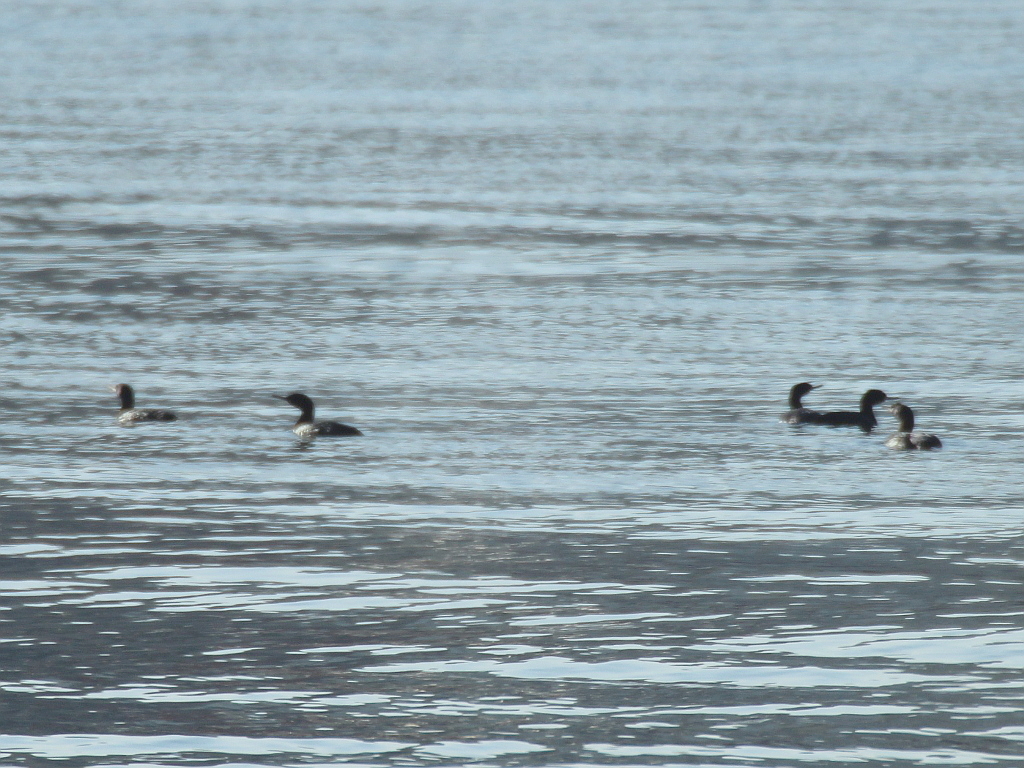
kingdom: Animalia
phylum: Chordata
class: Aves
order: Suliformes
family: Phalacrocoracidae
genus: Phalacrocorax
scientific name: Phalacrocorax pelagicus
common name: Pelagic cormorant
